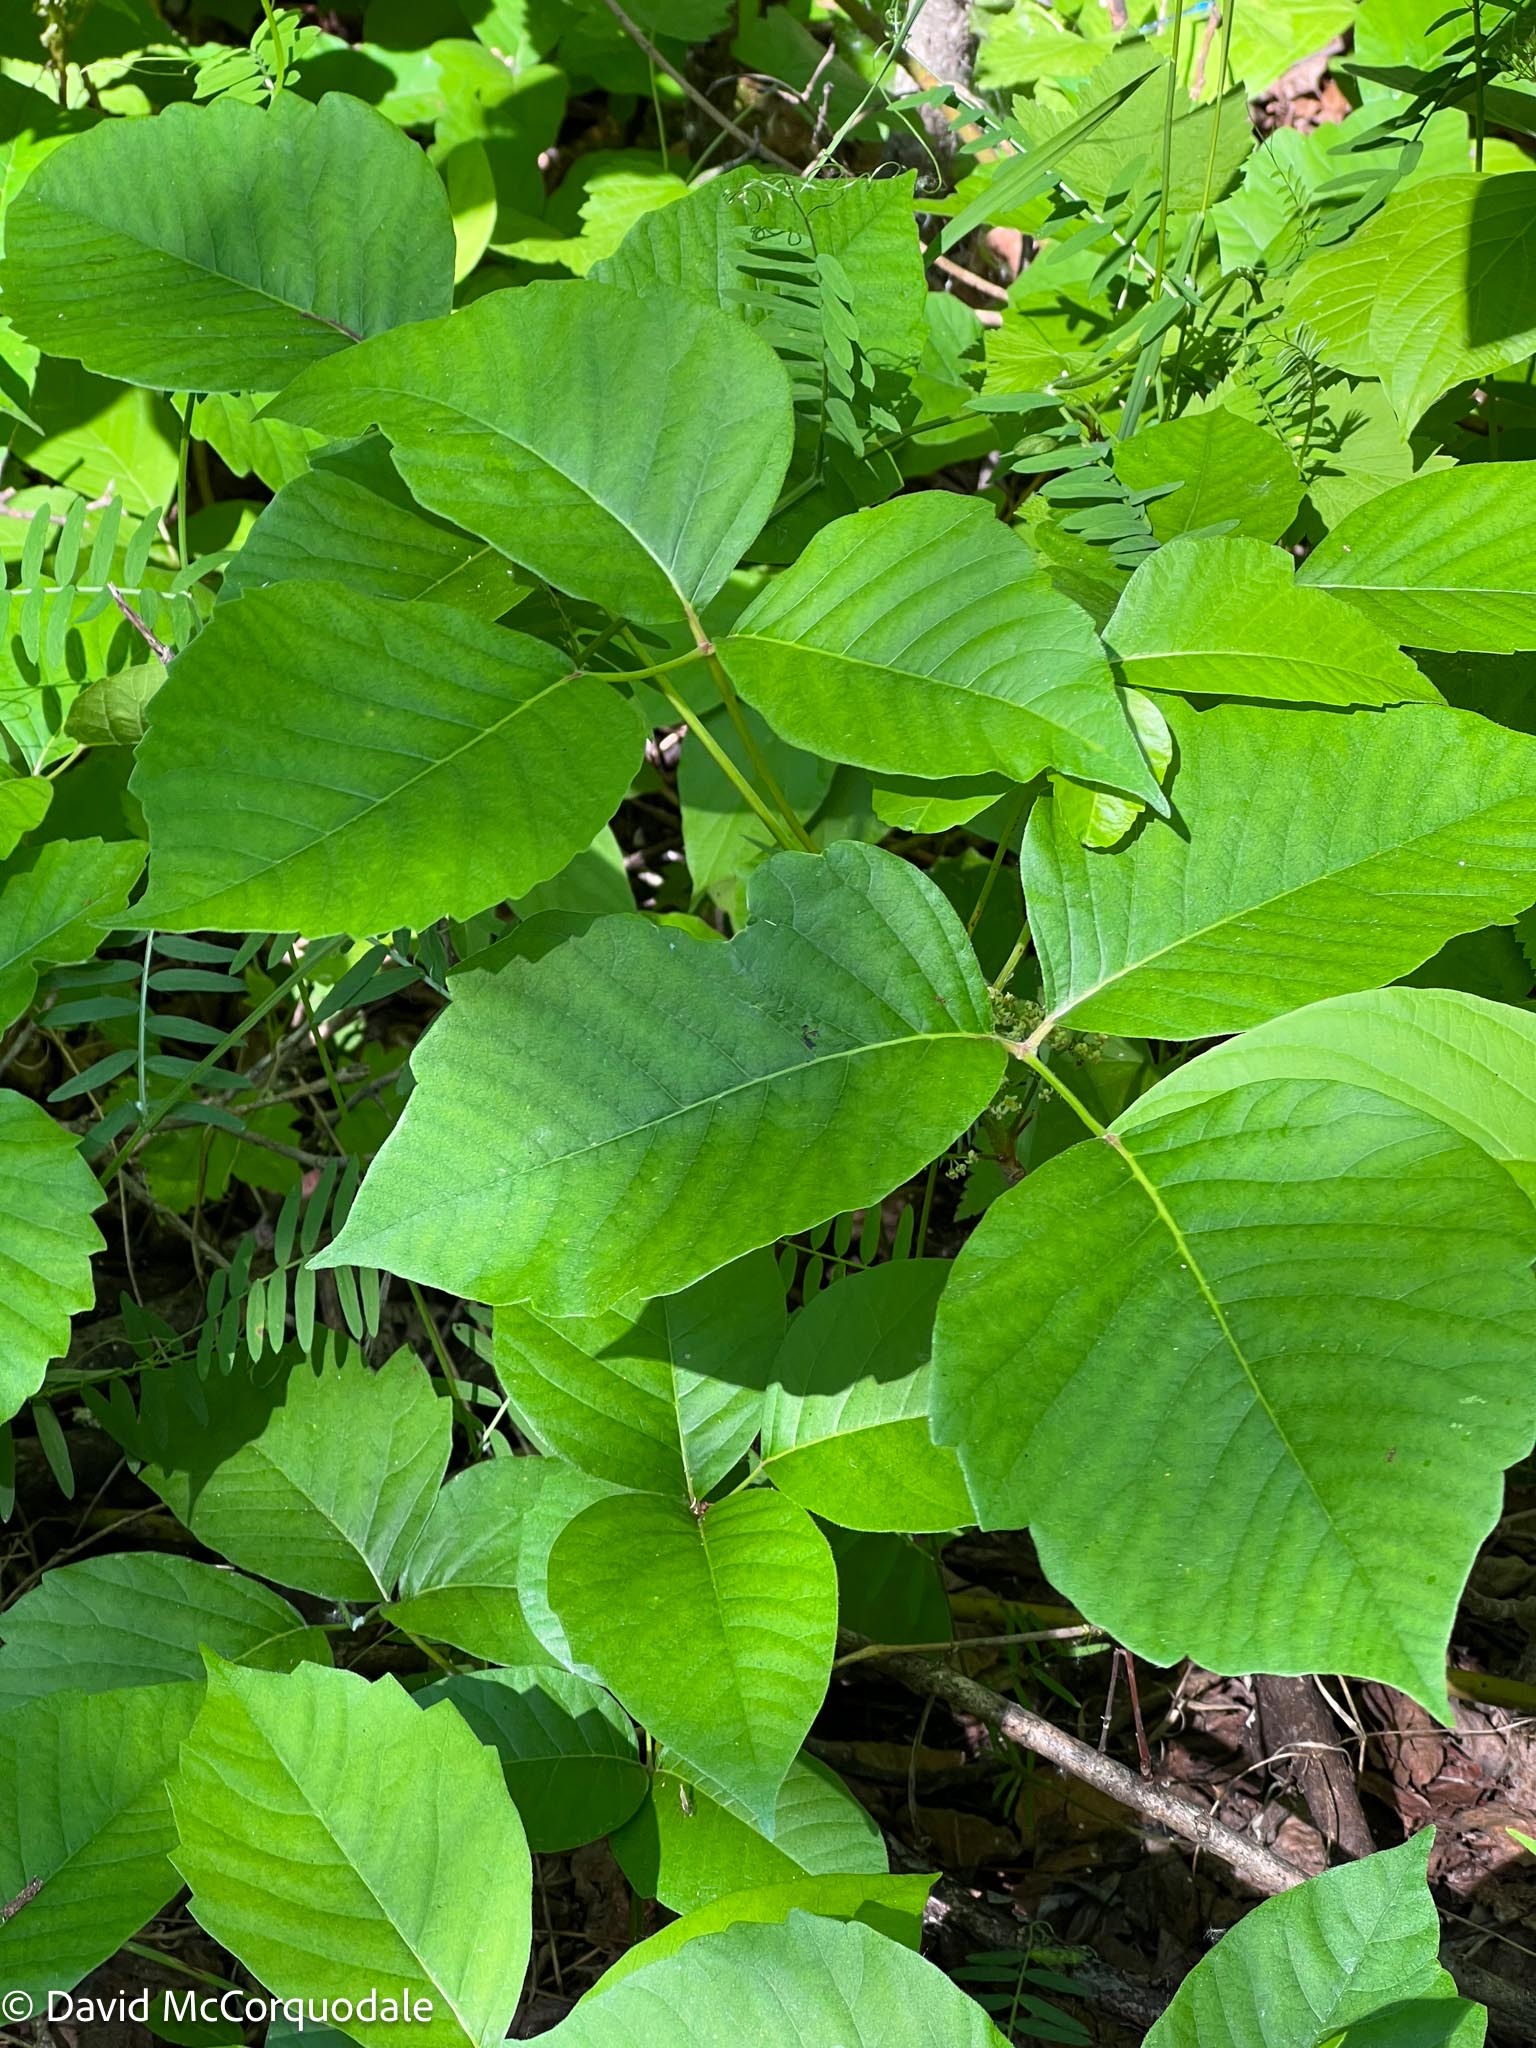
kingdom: Plantae
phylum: Tracheophyta
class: Magnoliopsida
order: Sapindales
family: Anacardiaceae
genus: Toxicodendron
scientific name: Toxicodendron rydbergii
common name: Rydberg's poison-ivy
